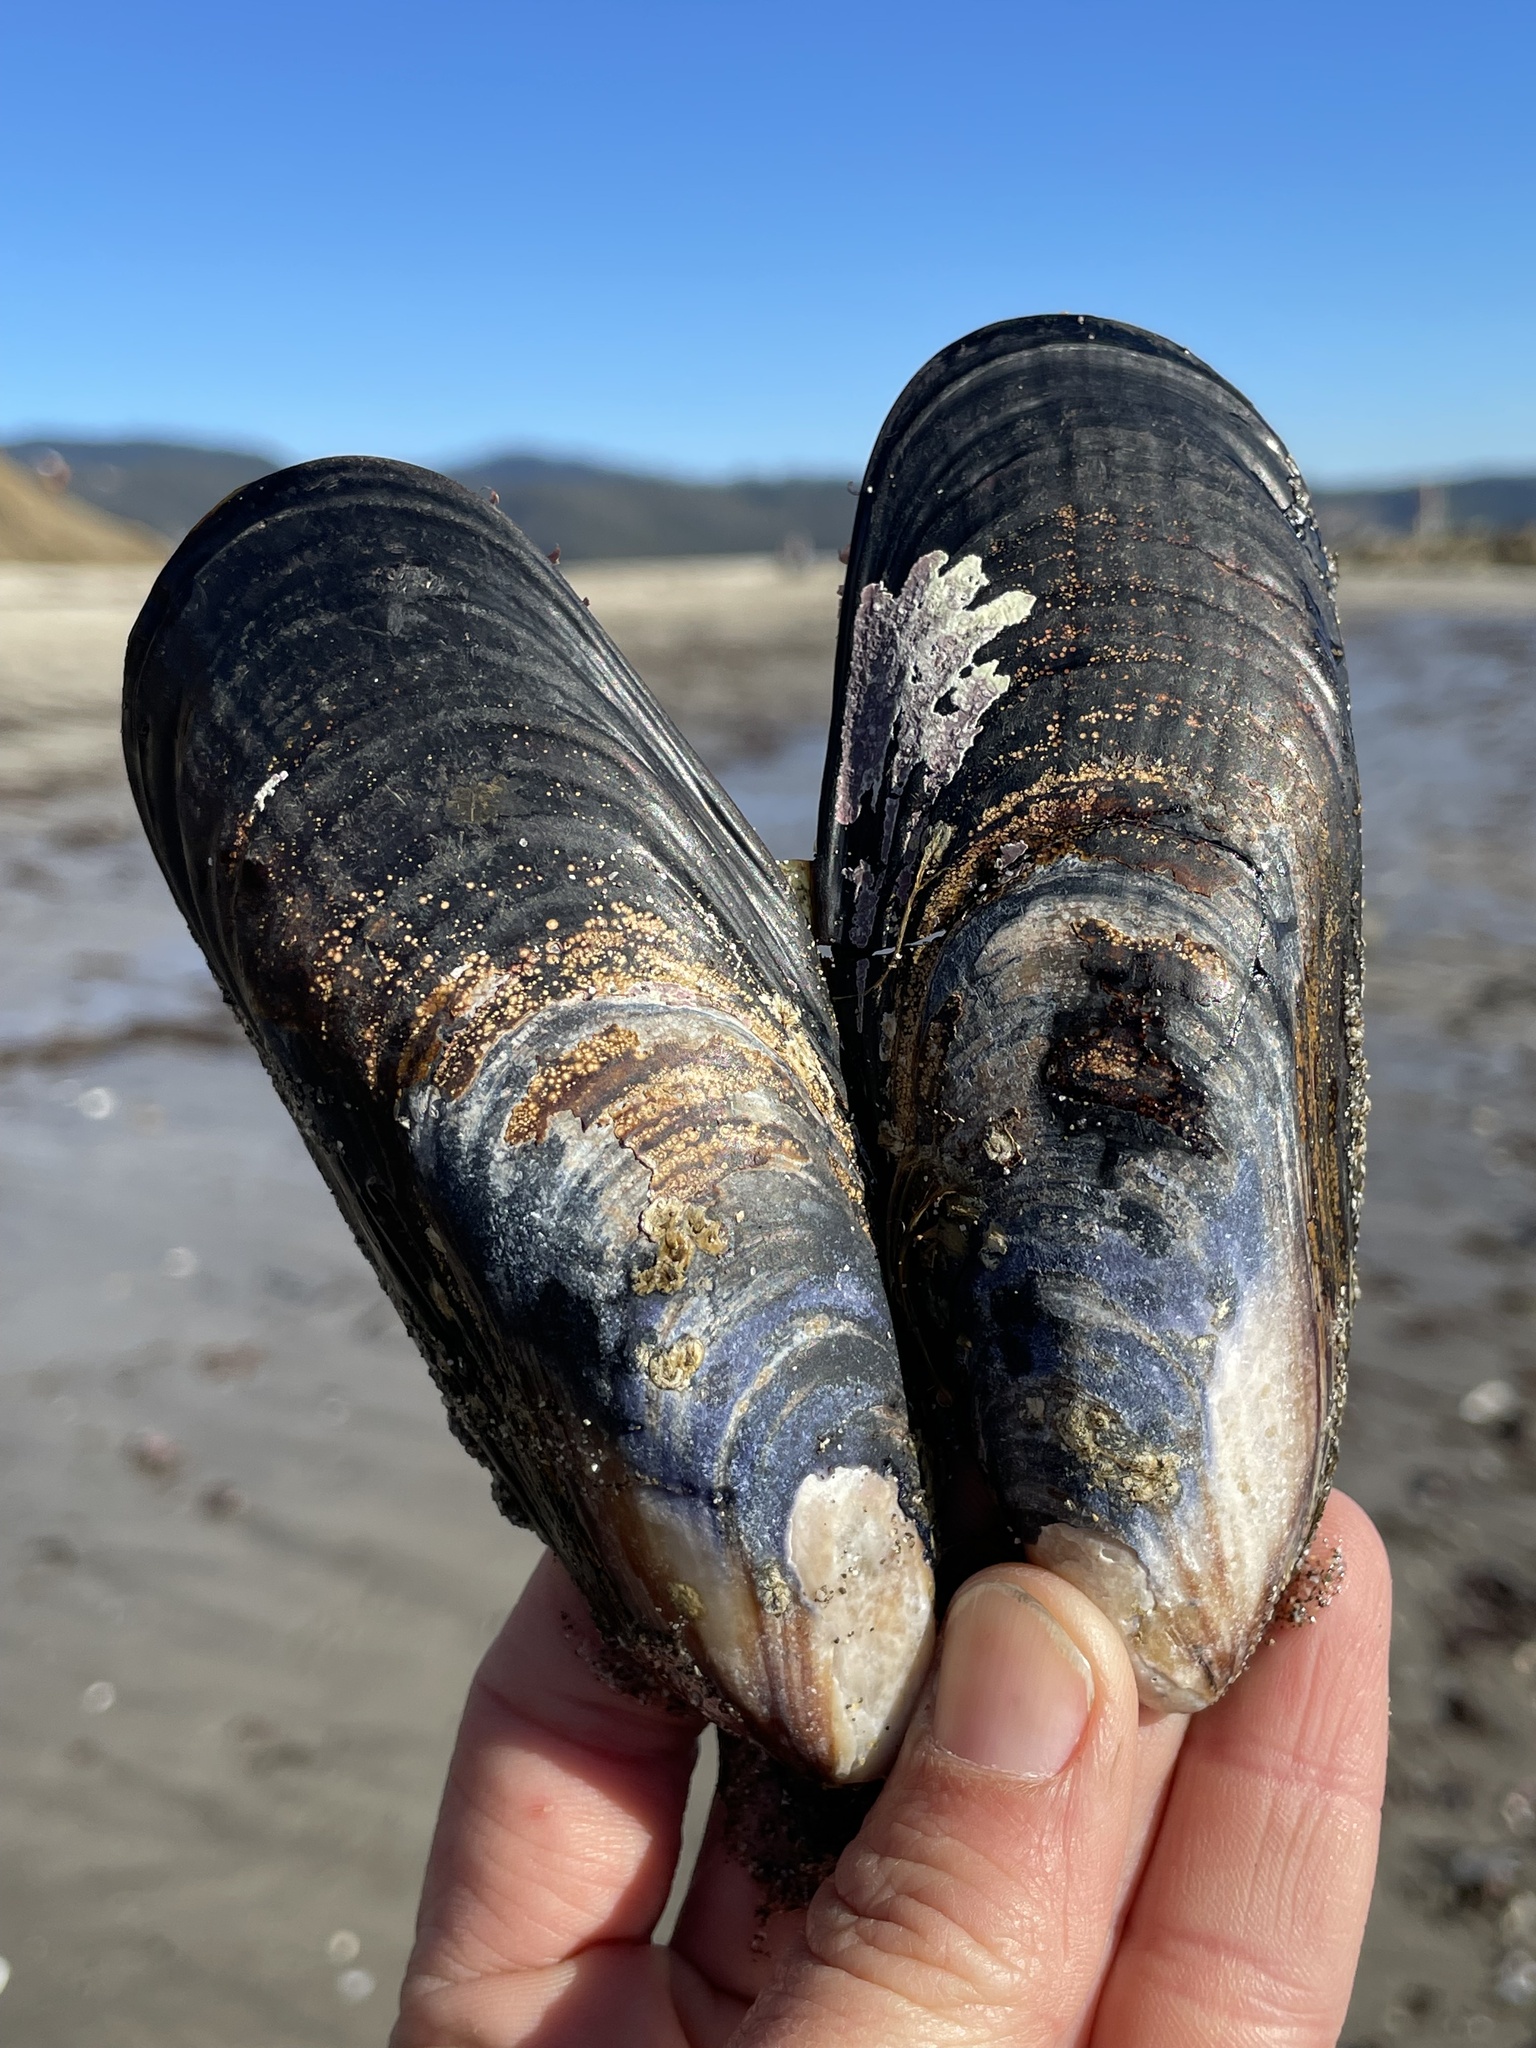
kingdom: Animalia
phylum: Mollusca
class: Bivalvia
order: Mytilida
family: Mytilidae
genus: Mytilus
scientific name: Mytilus californianus
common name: California mussel
